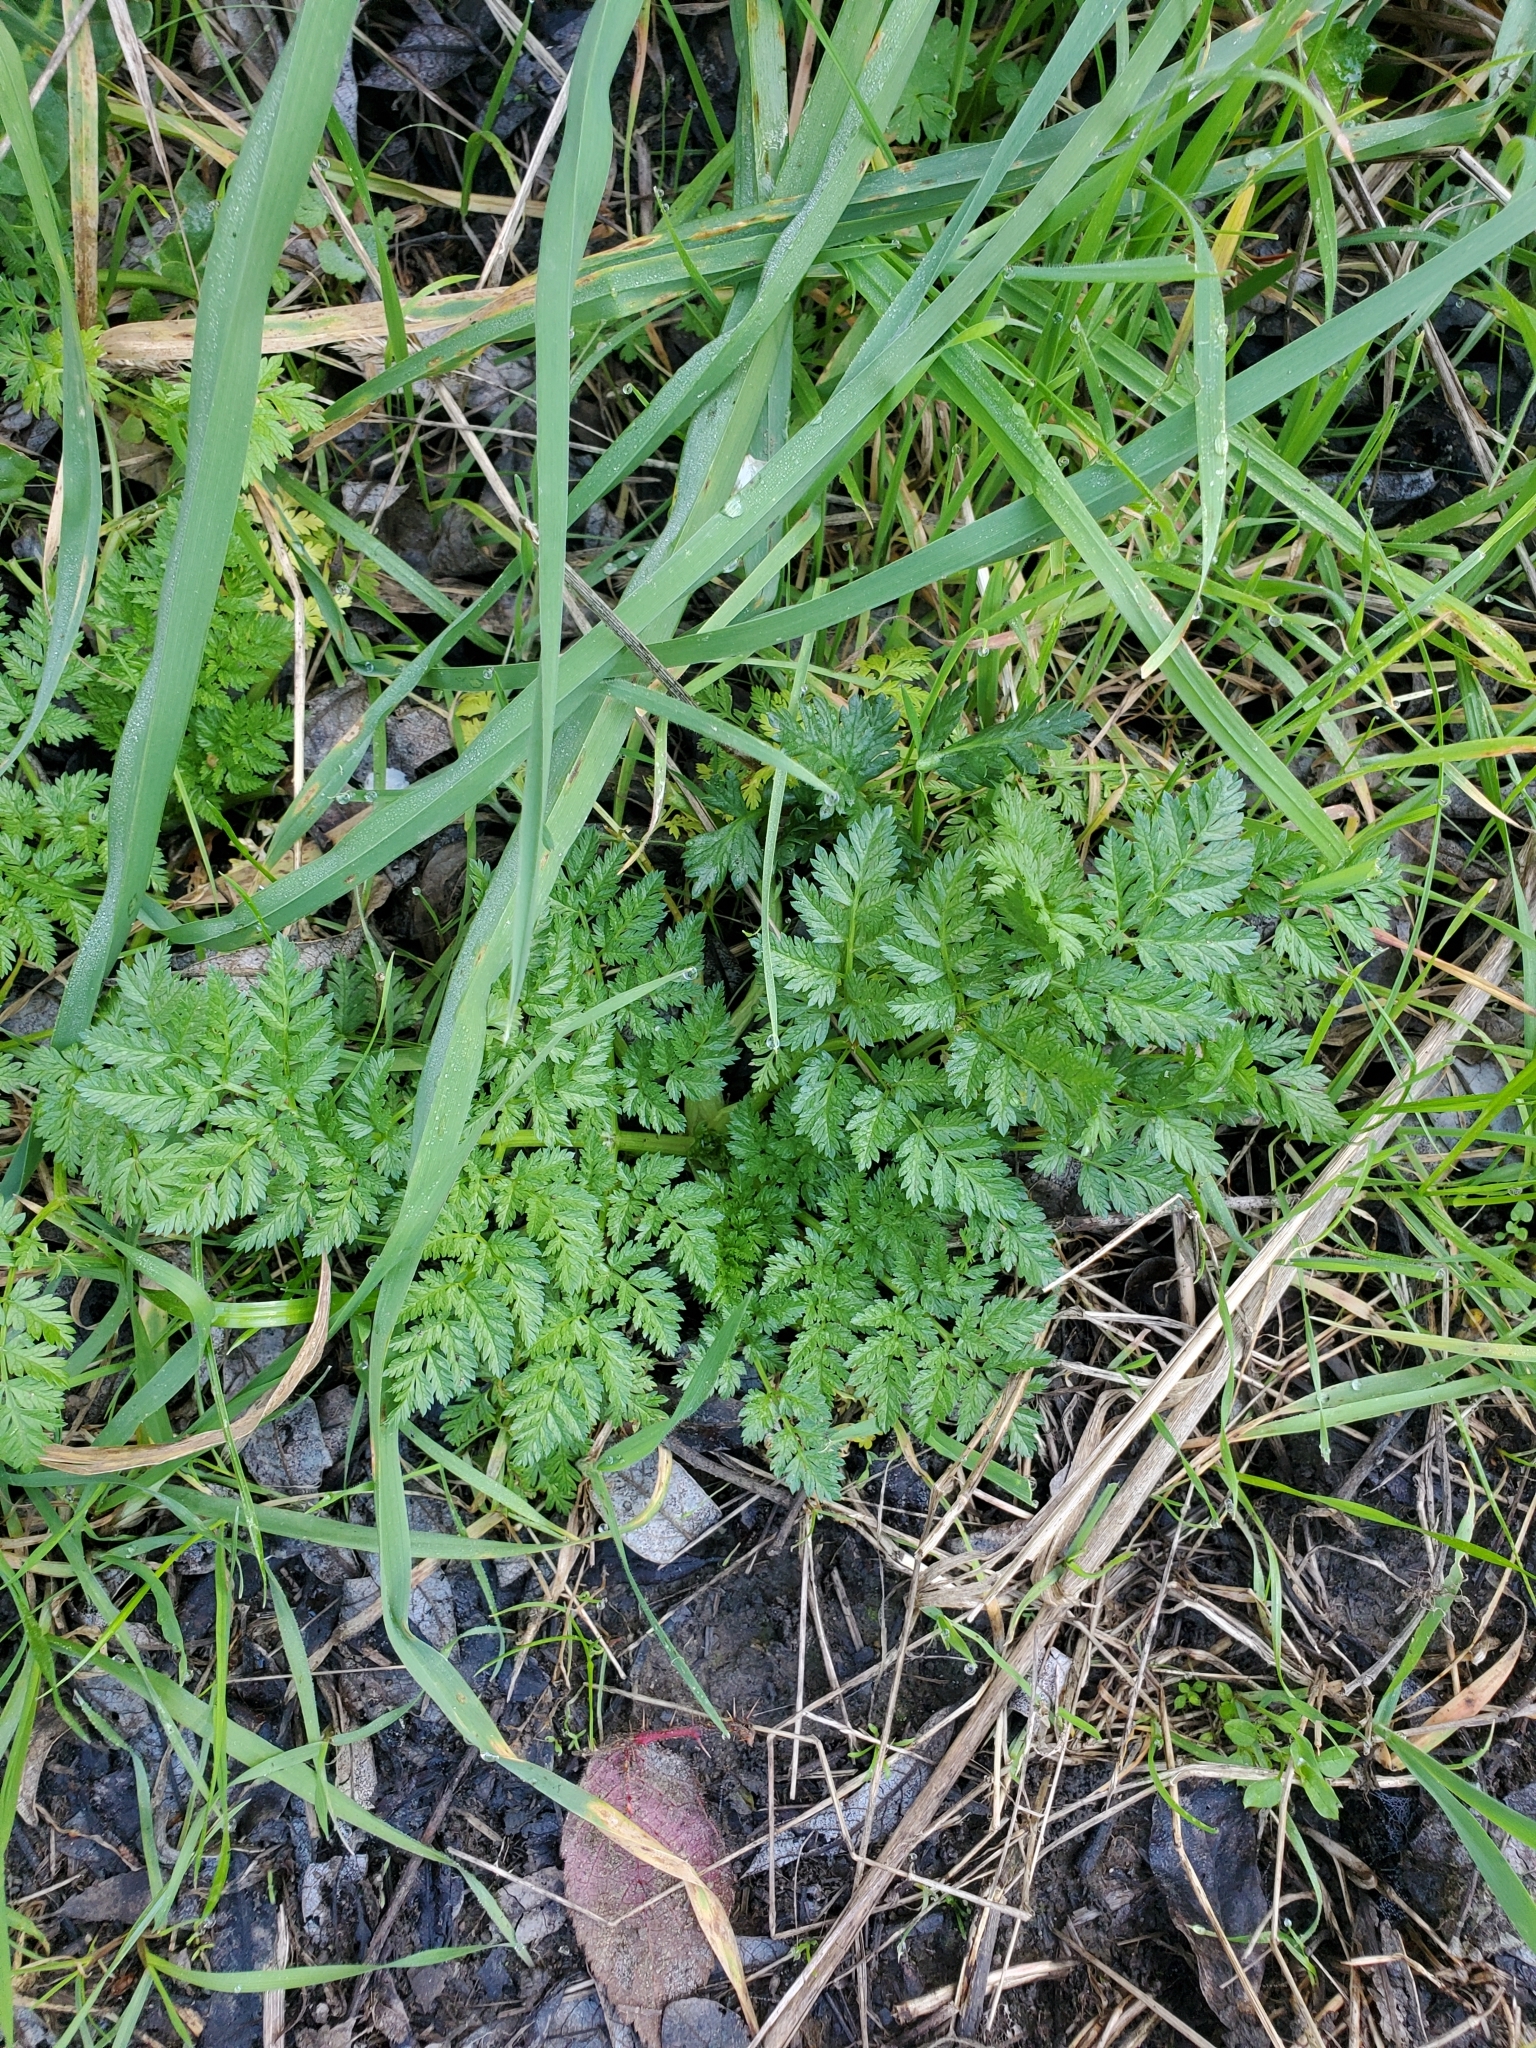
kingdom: Plantae
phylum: Tracheophyta
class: Magnoliopsida
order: Apiales
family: Apiaceae
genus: Conium
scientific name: Conium maculatum
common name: Hemlock
